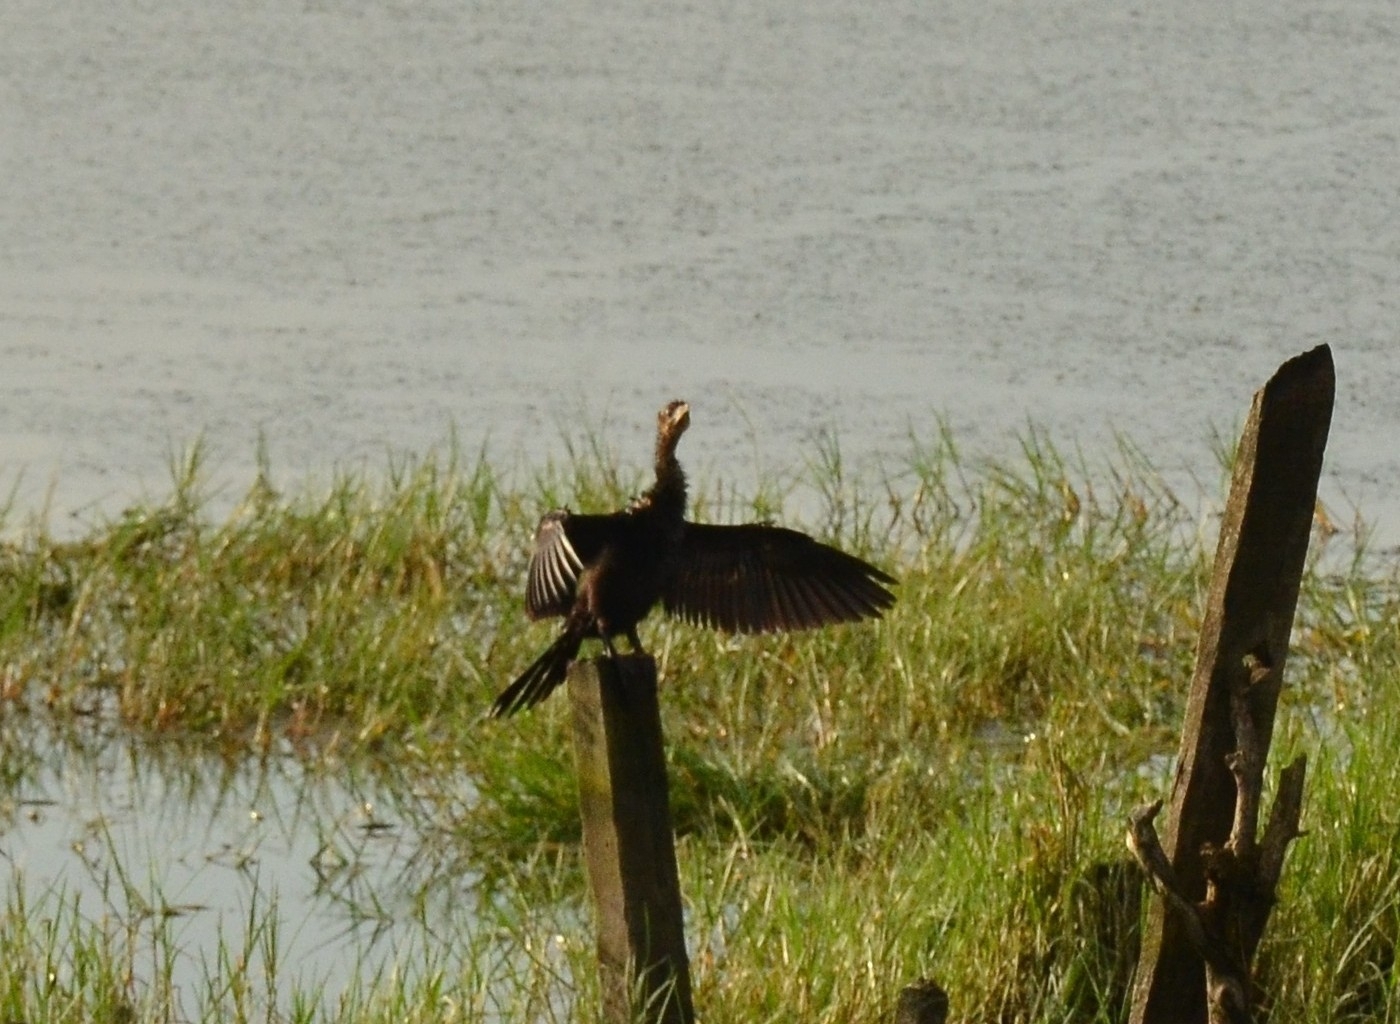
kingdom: Animalia
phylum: Chordata
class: Aves
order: Suliformes
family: Phalacrocoracidae
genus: Microcarbo
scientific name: Microcarbo niger
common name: Little cormorant
